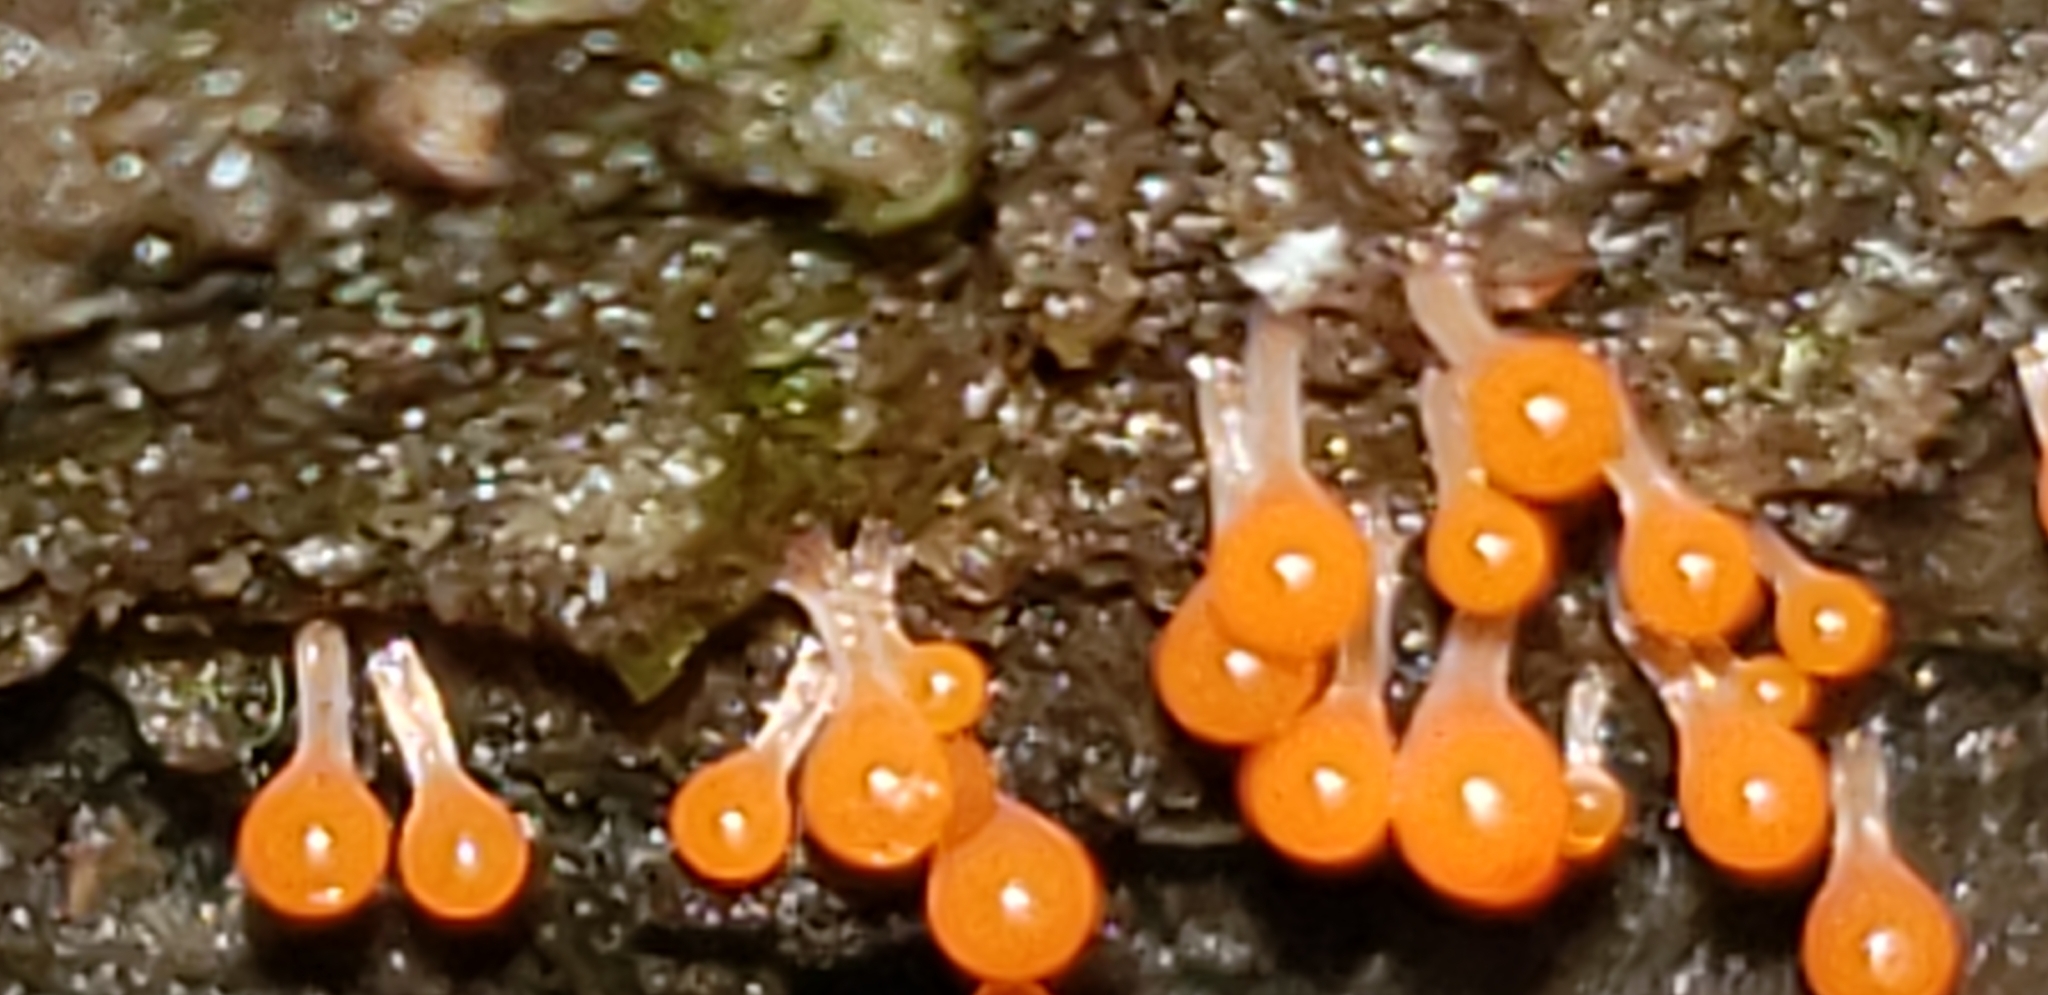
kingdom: Protozoa
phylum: Mycetozoa
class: Myxomycetes
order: Trichiales
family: Arcyriaceae
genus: Hemitrichia
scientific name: Hemitrichia calyculata
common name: Push pin slime mold
